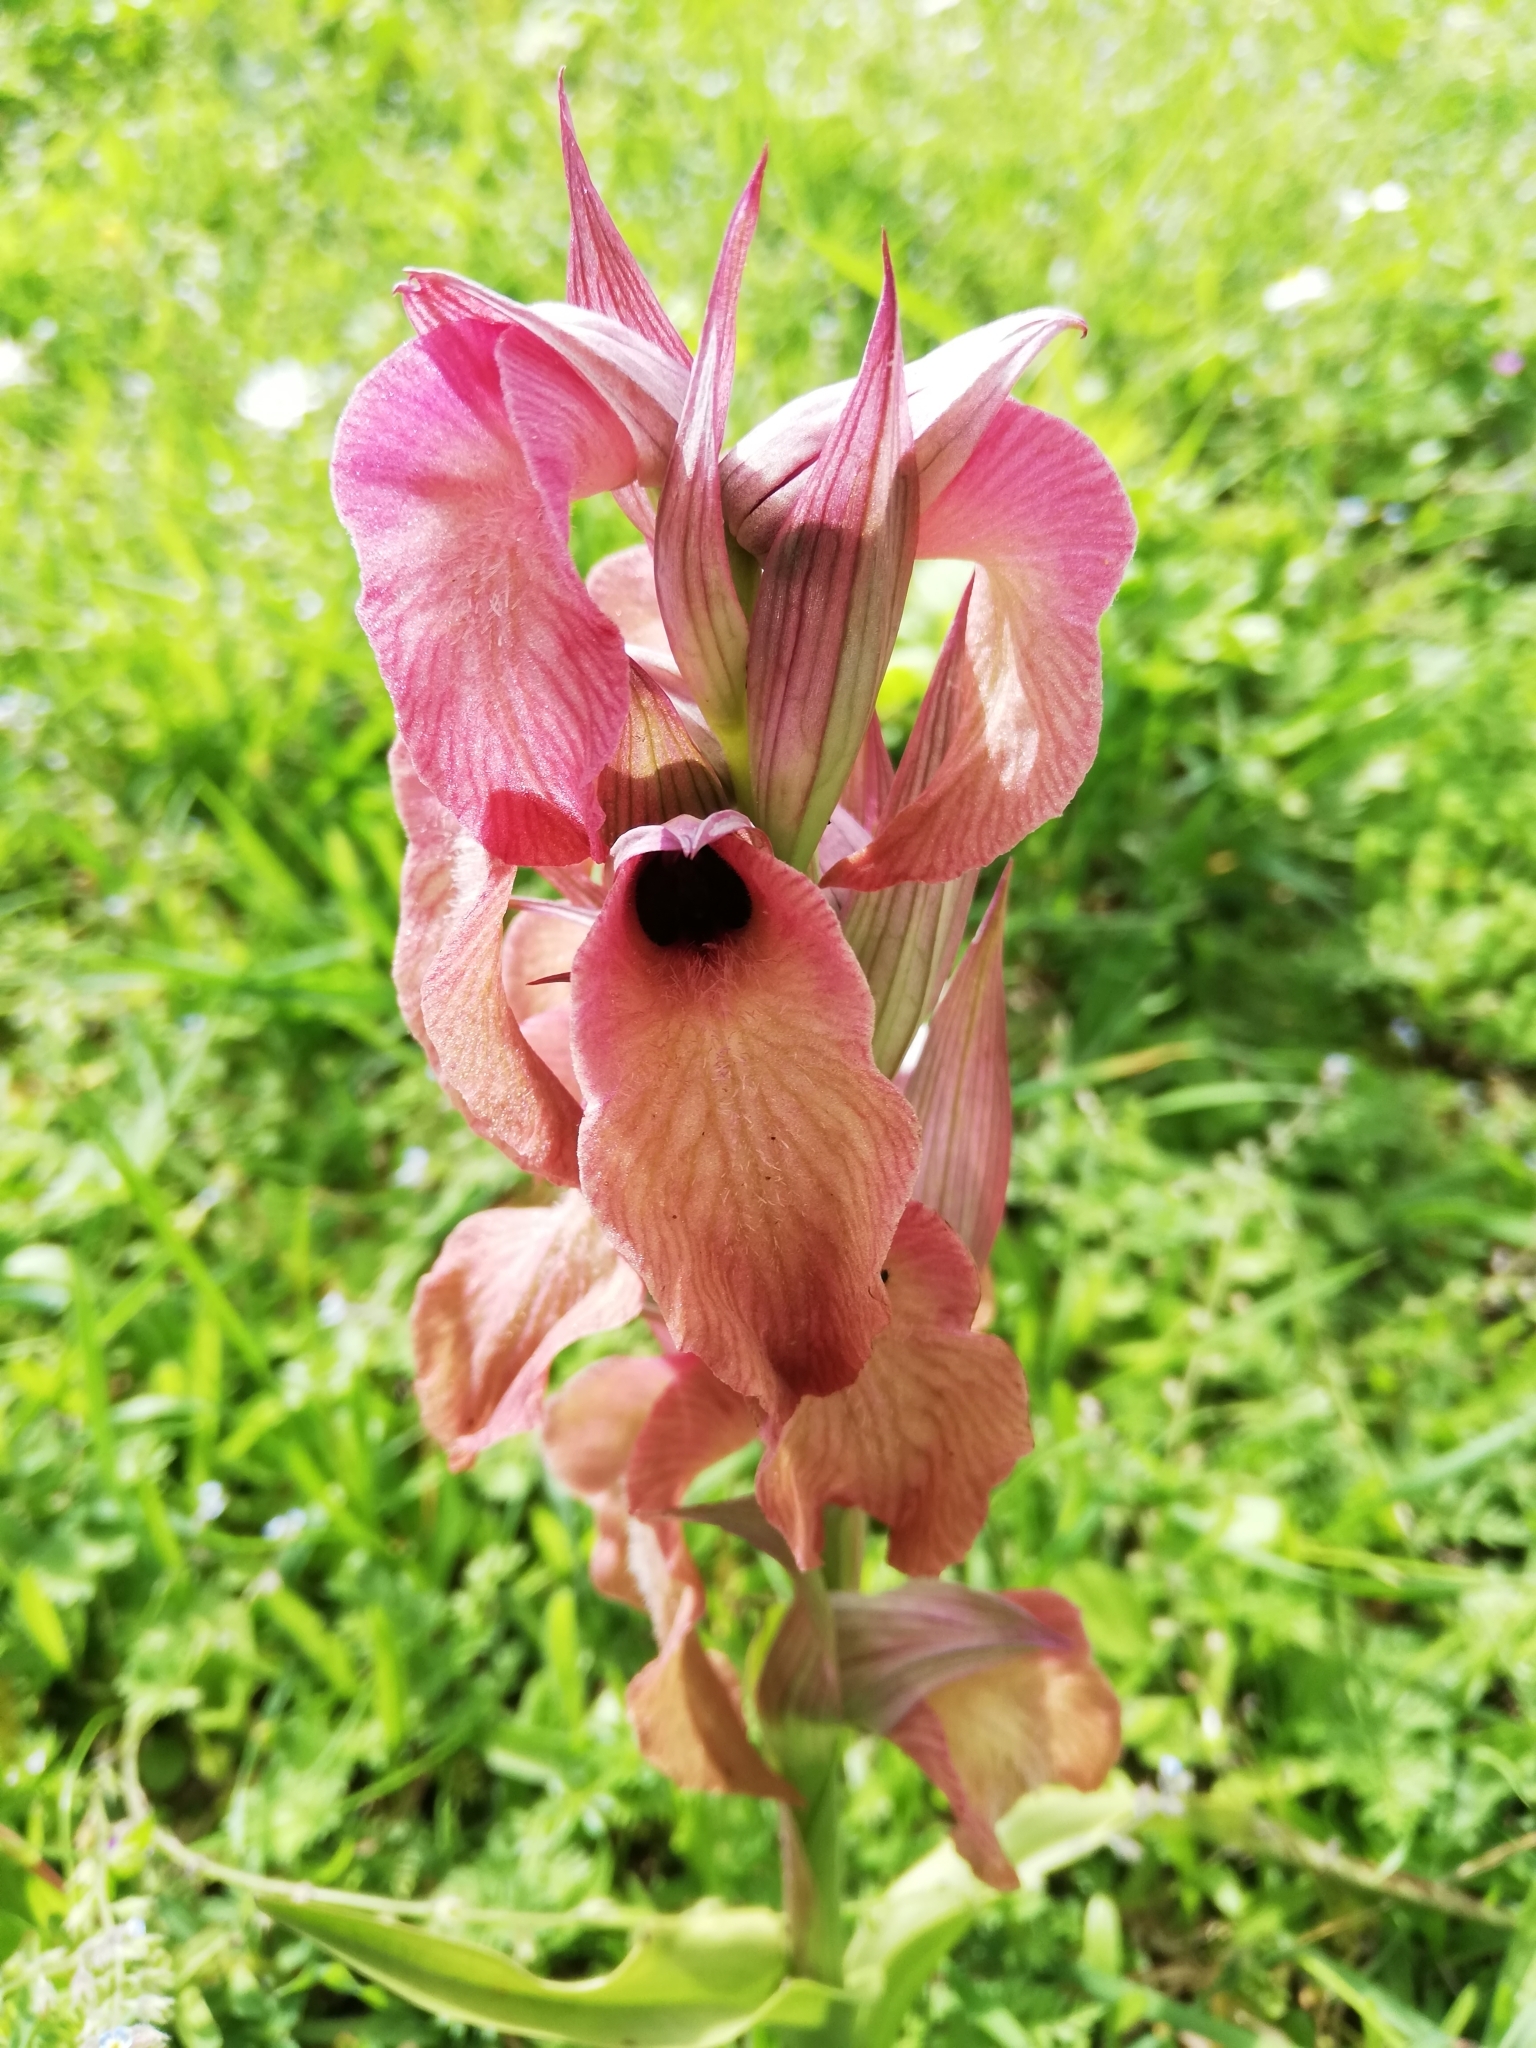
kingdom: Plantae
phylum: Tracheophyta
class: Liliopsida
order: Asparagales
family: Orchidaceae
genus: Serapias
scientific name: Serapias neglecta
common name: Neglected serapias
